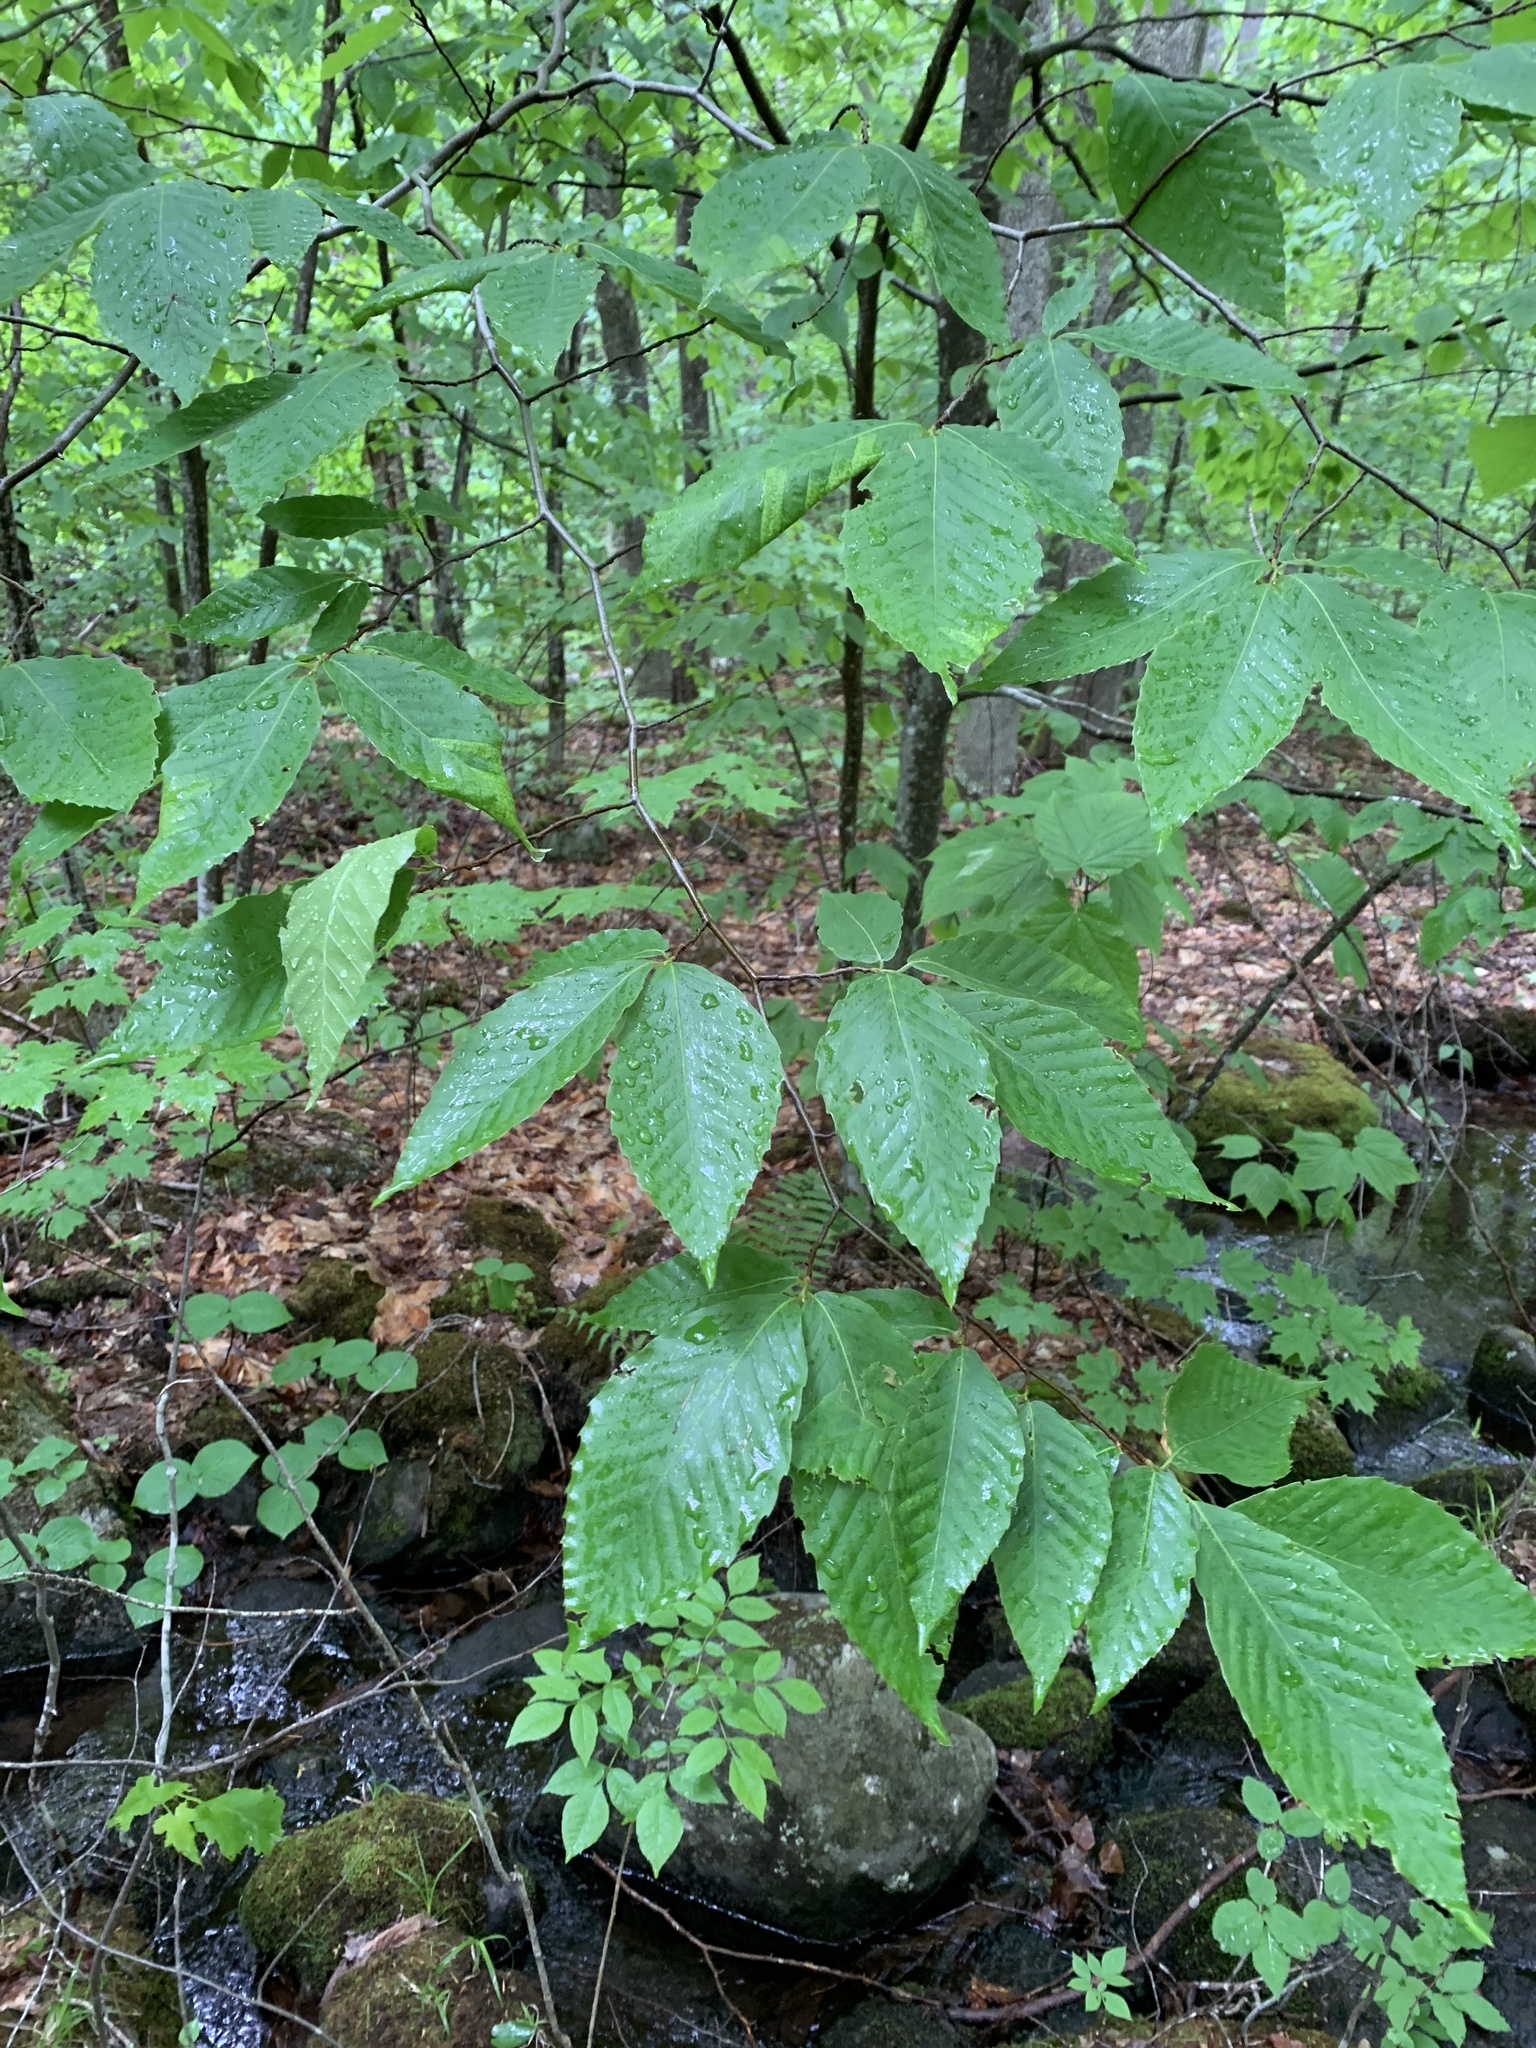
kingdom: Plantae
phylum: Tracheophyta
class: Magnoliopsida
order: Fagales
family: Fagaceae
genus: Fagus
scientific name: Fagus grandifolia
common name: American beech
